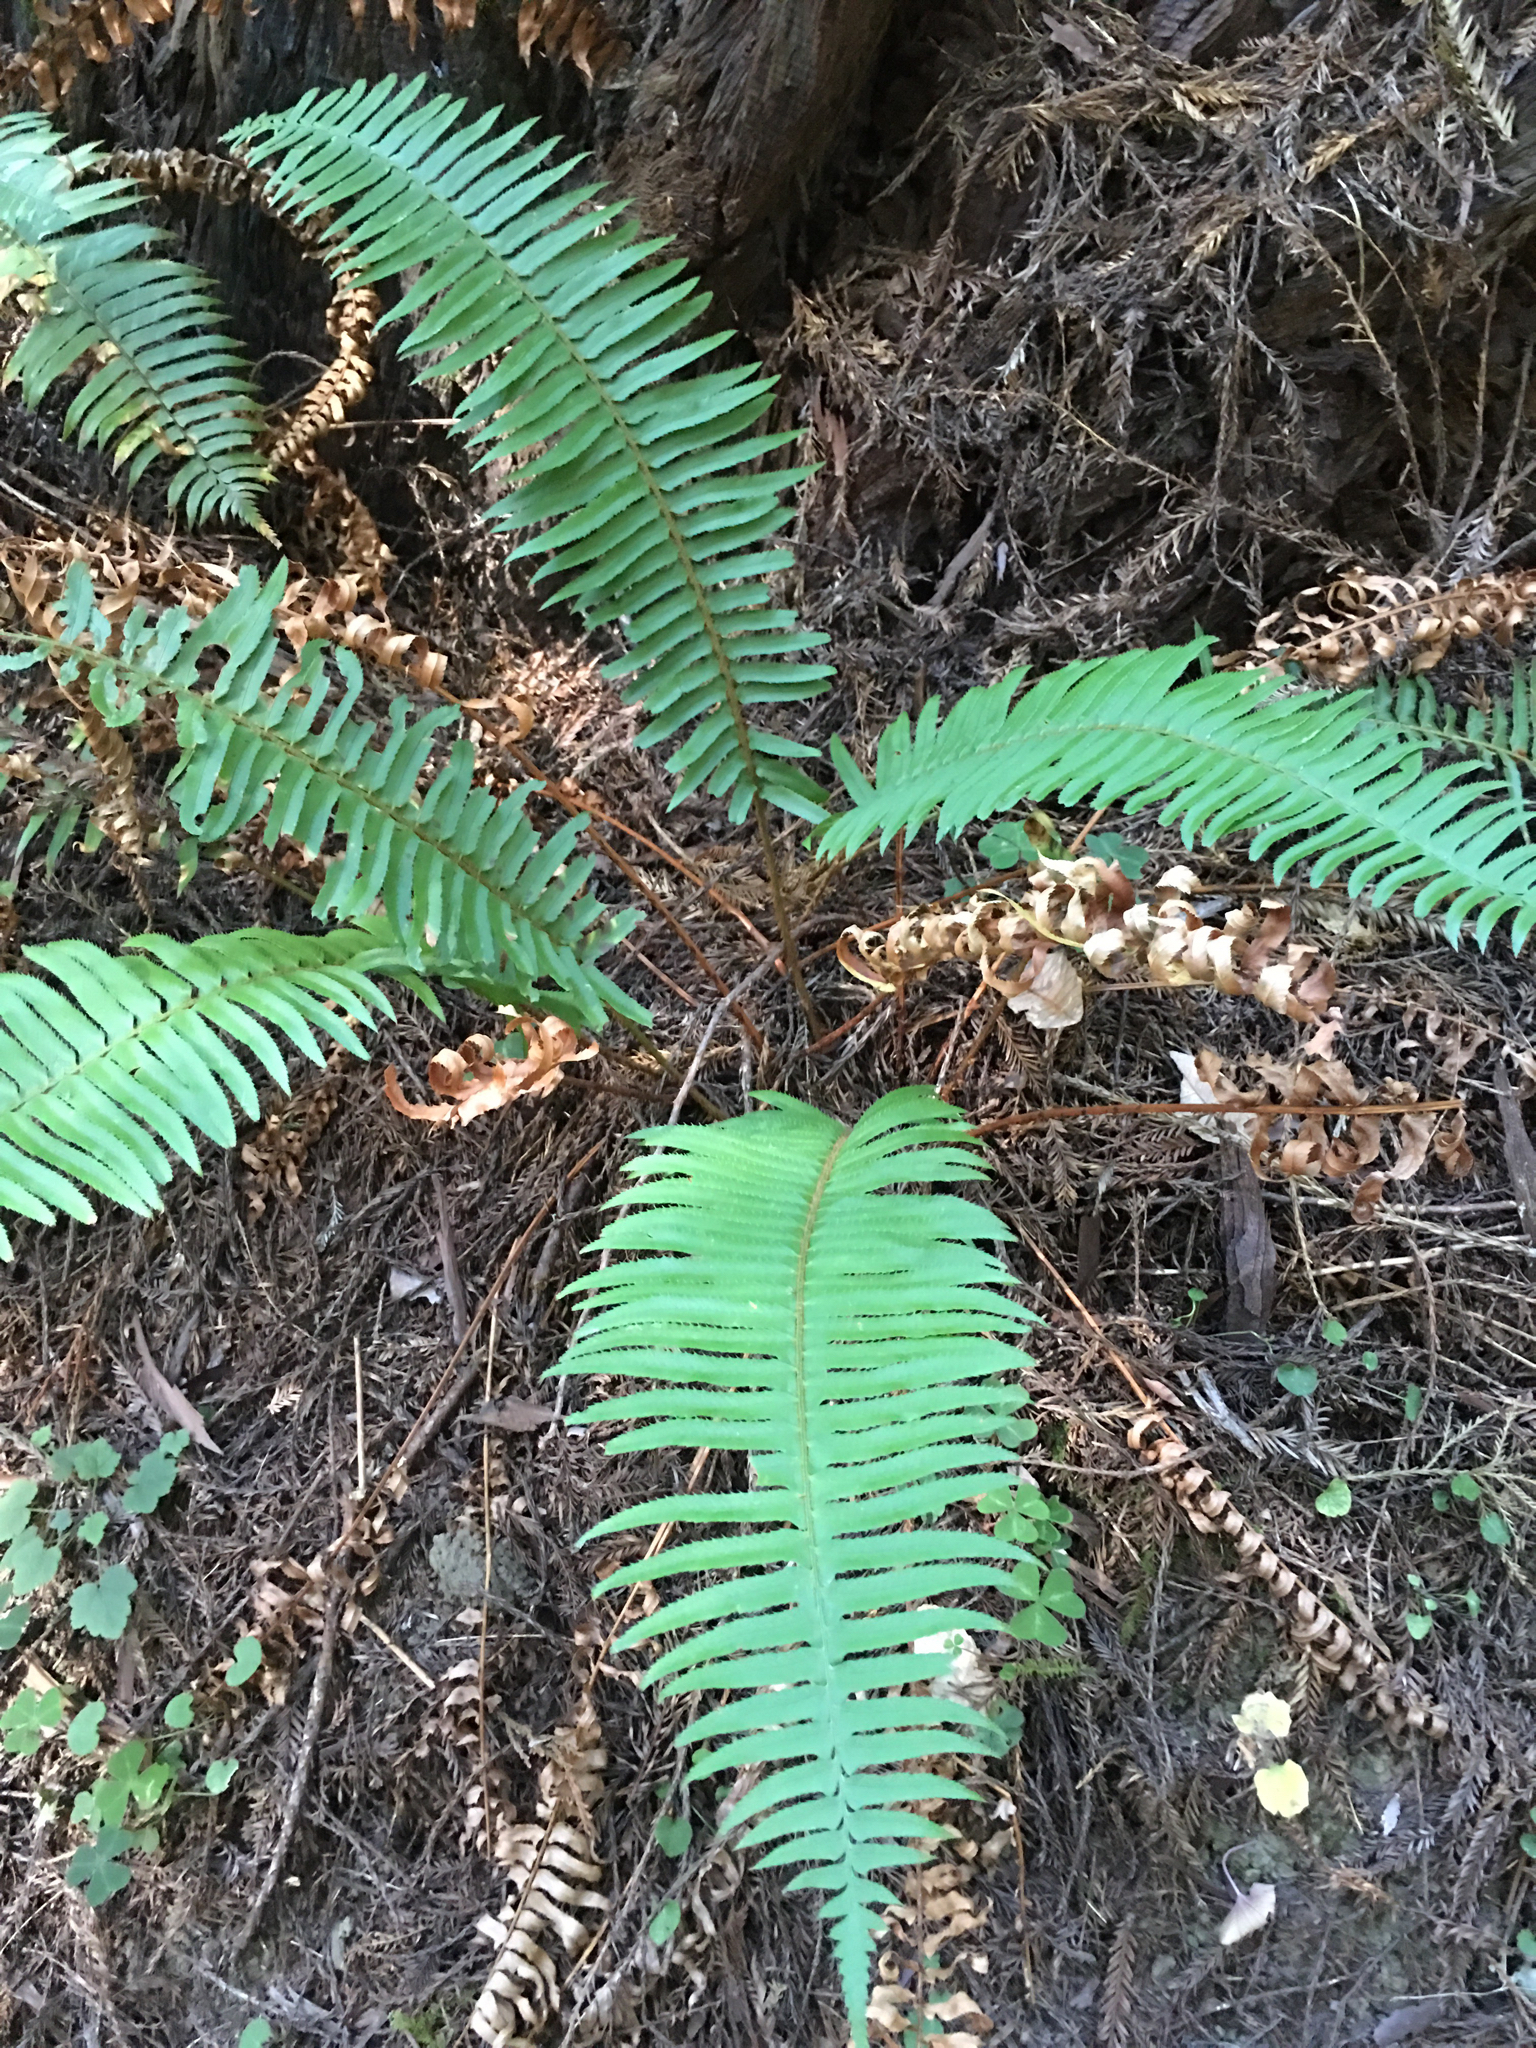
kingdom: Plantae
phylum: Tracheophyta
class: Polypodiopsida
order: Polypodiales
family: Dryopteridaceae
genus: Polystichum
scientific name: Polystichum munitum
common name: Western sword-fern
